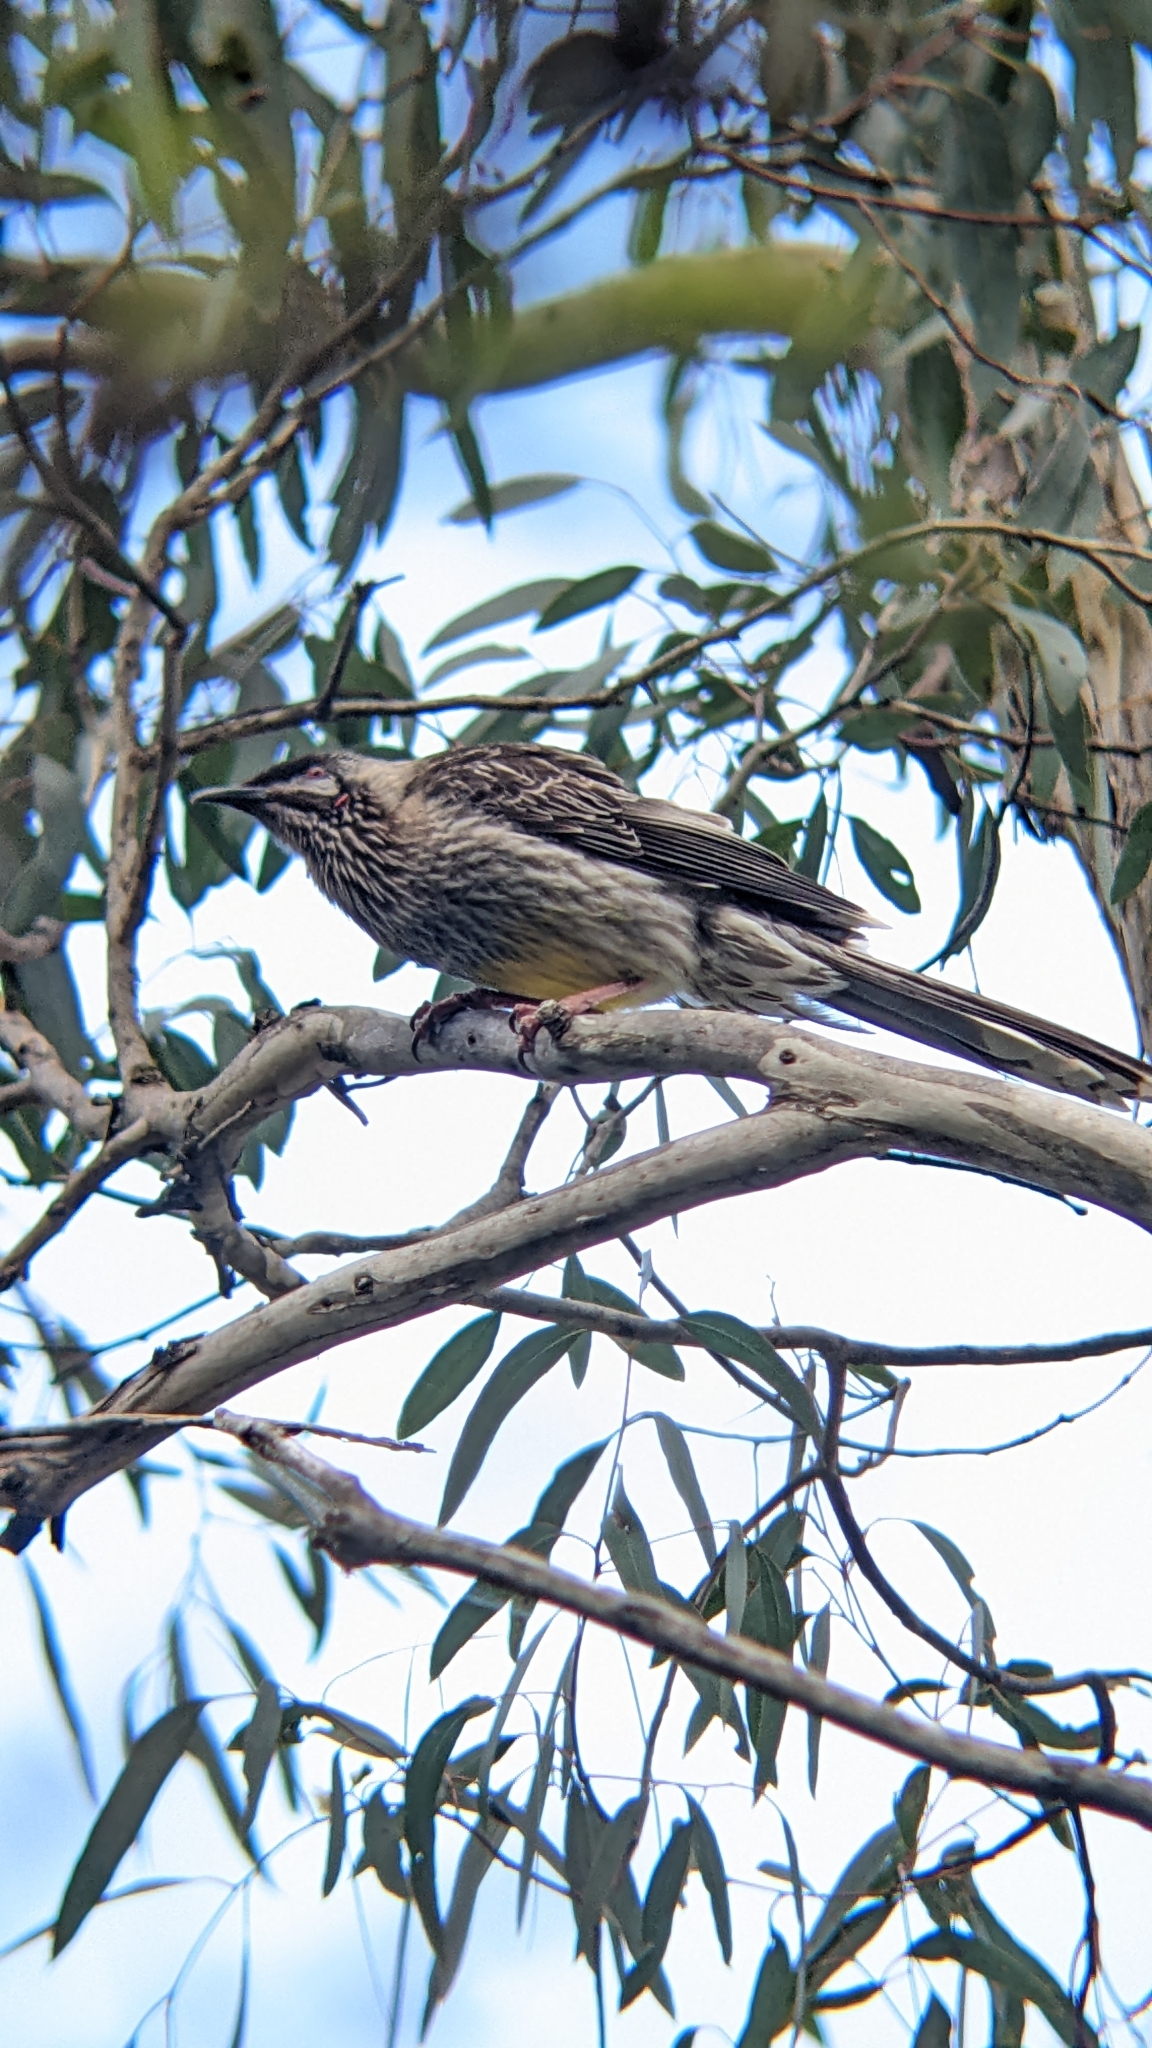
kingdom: Animalia
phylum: Chordata
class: Aves
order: Passeriformes
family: Meliphagidae
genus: Anthochaera
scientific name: Anthochaera carunculata
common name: Red wattlebird
